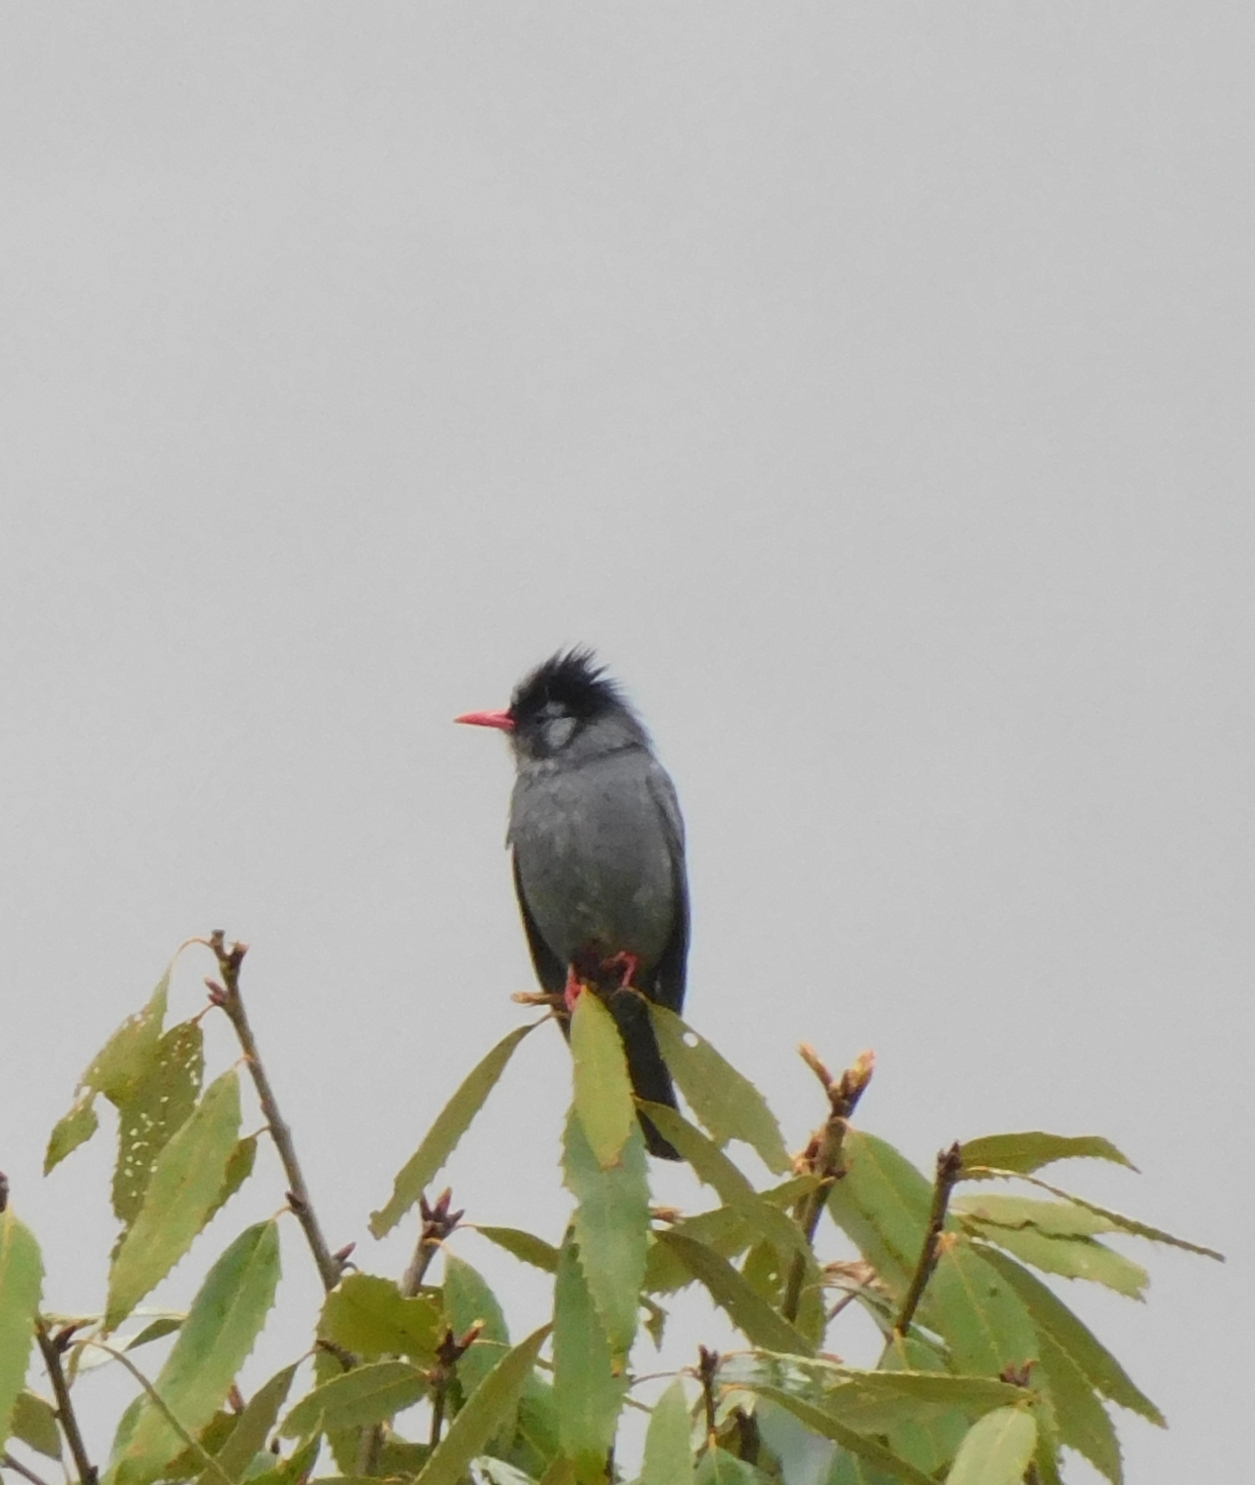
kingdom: Animalia
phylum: Chordata
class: Aves
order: Passeriformes
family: Pycnonotidae
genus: Hypsipetes
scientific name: Hypsipetes leucocephalus
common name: Black bulbul
